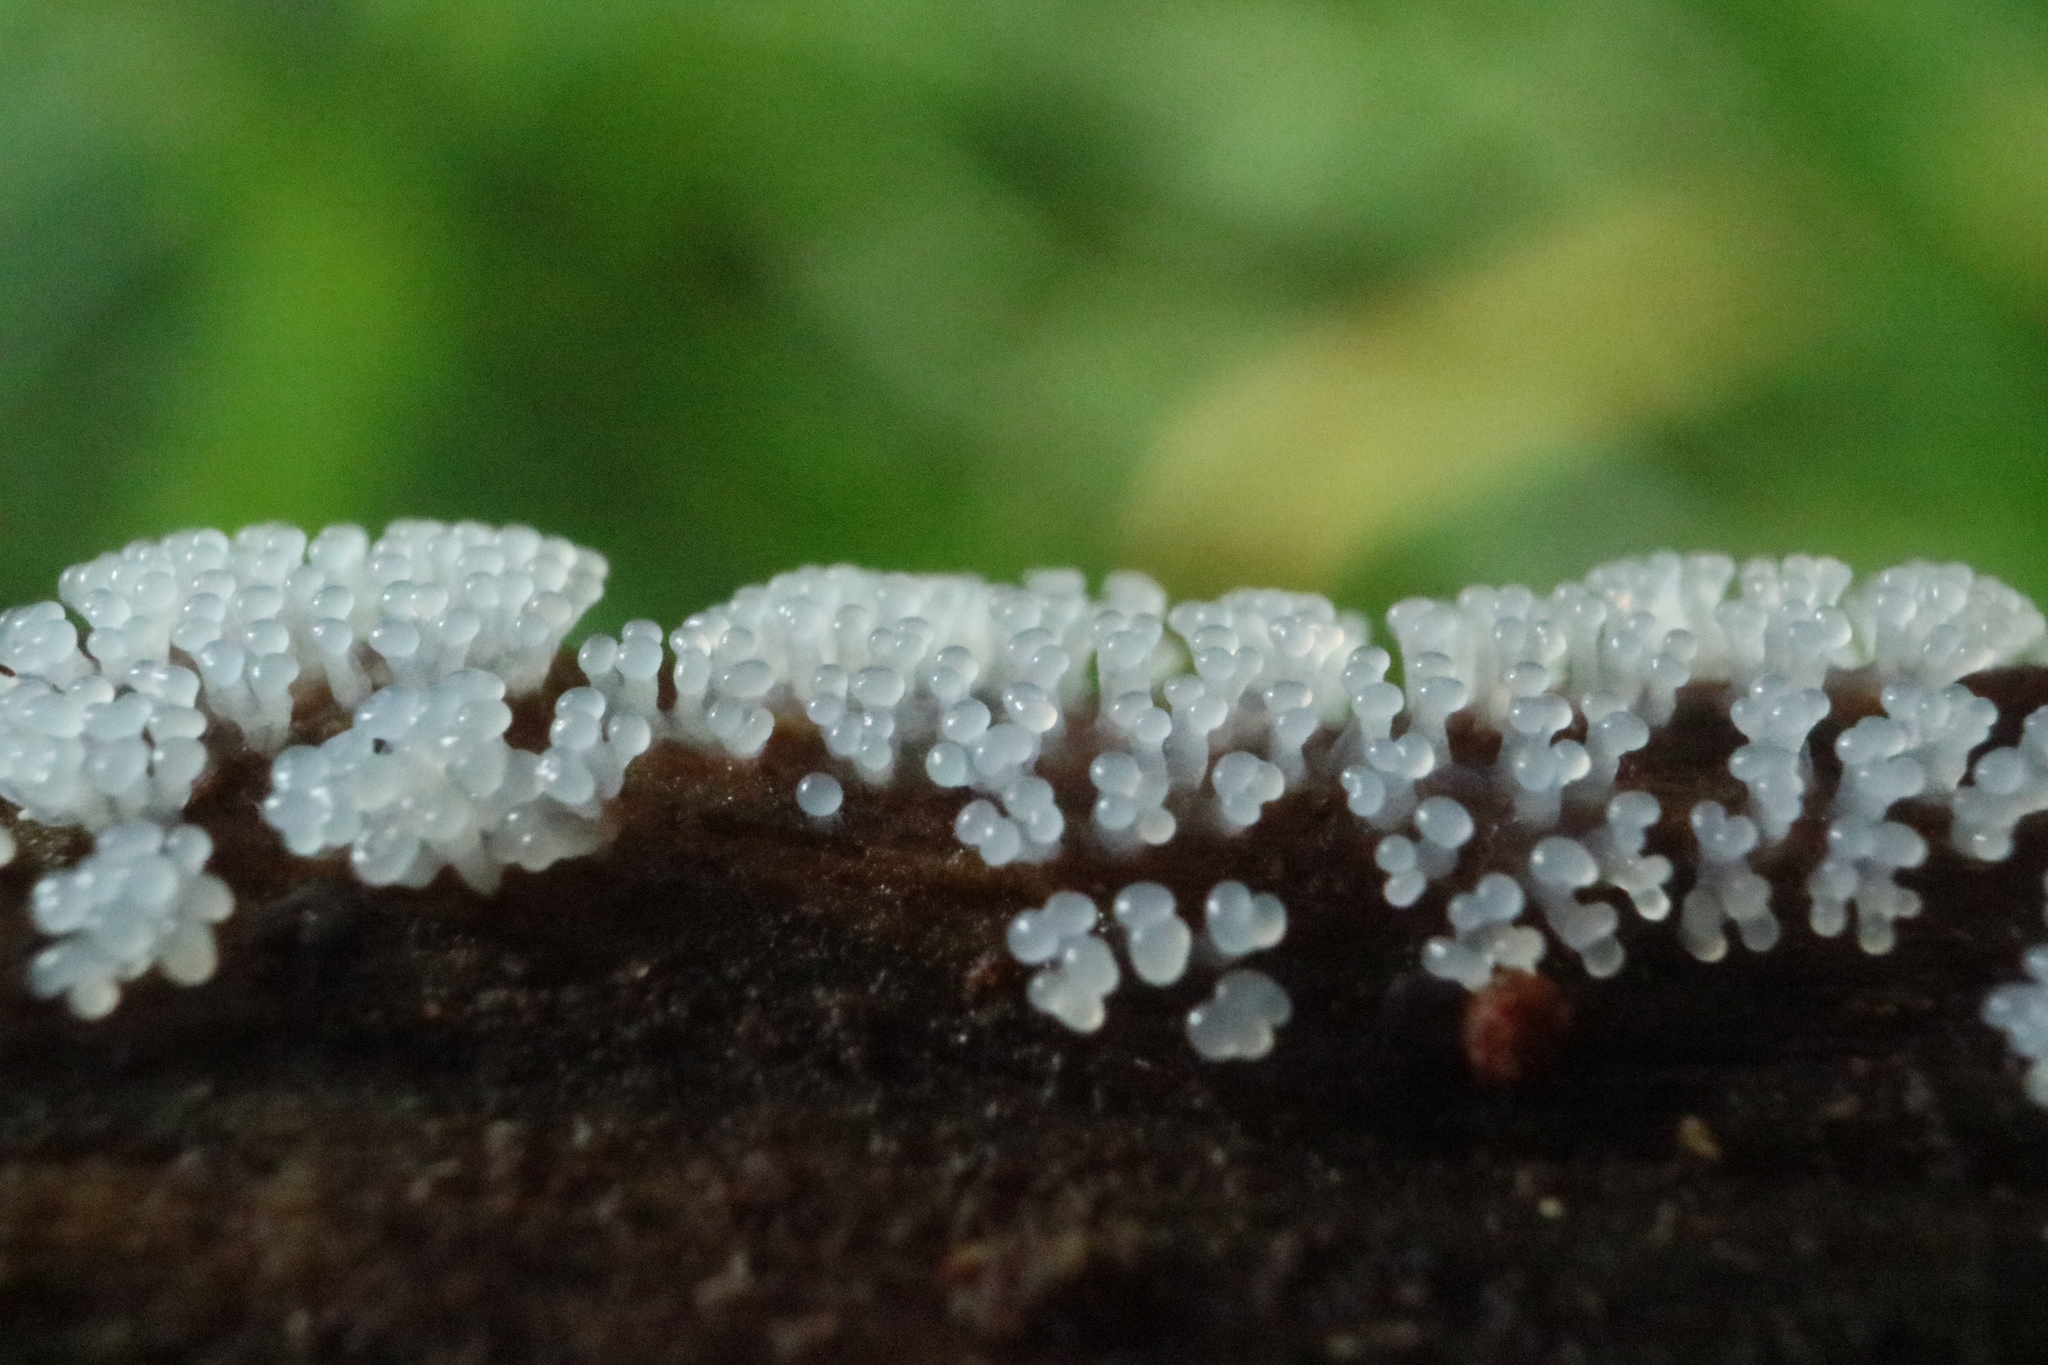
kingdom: Protozoa
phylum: Mycetozoa
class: Protosteliomycetes
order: Ceratiomyxales
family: Ceratiomyxaceae
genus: Ceratiomyxa
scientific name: Ceratiomyxa fruticulosa
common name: Honeycomb coral slime mold
